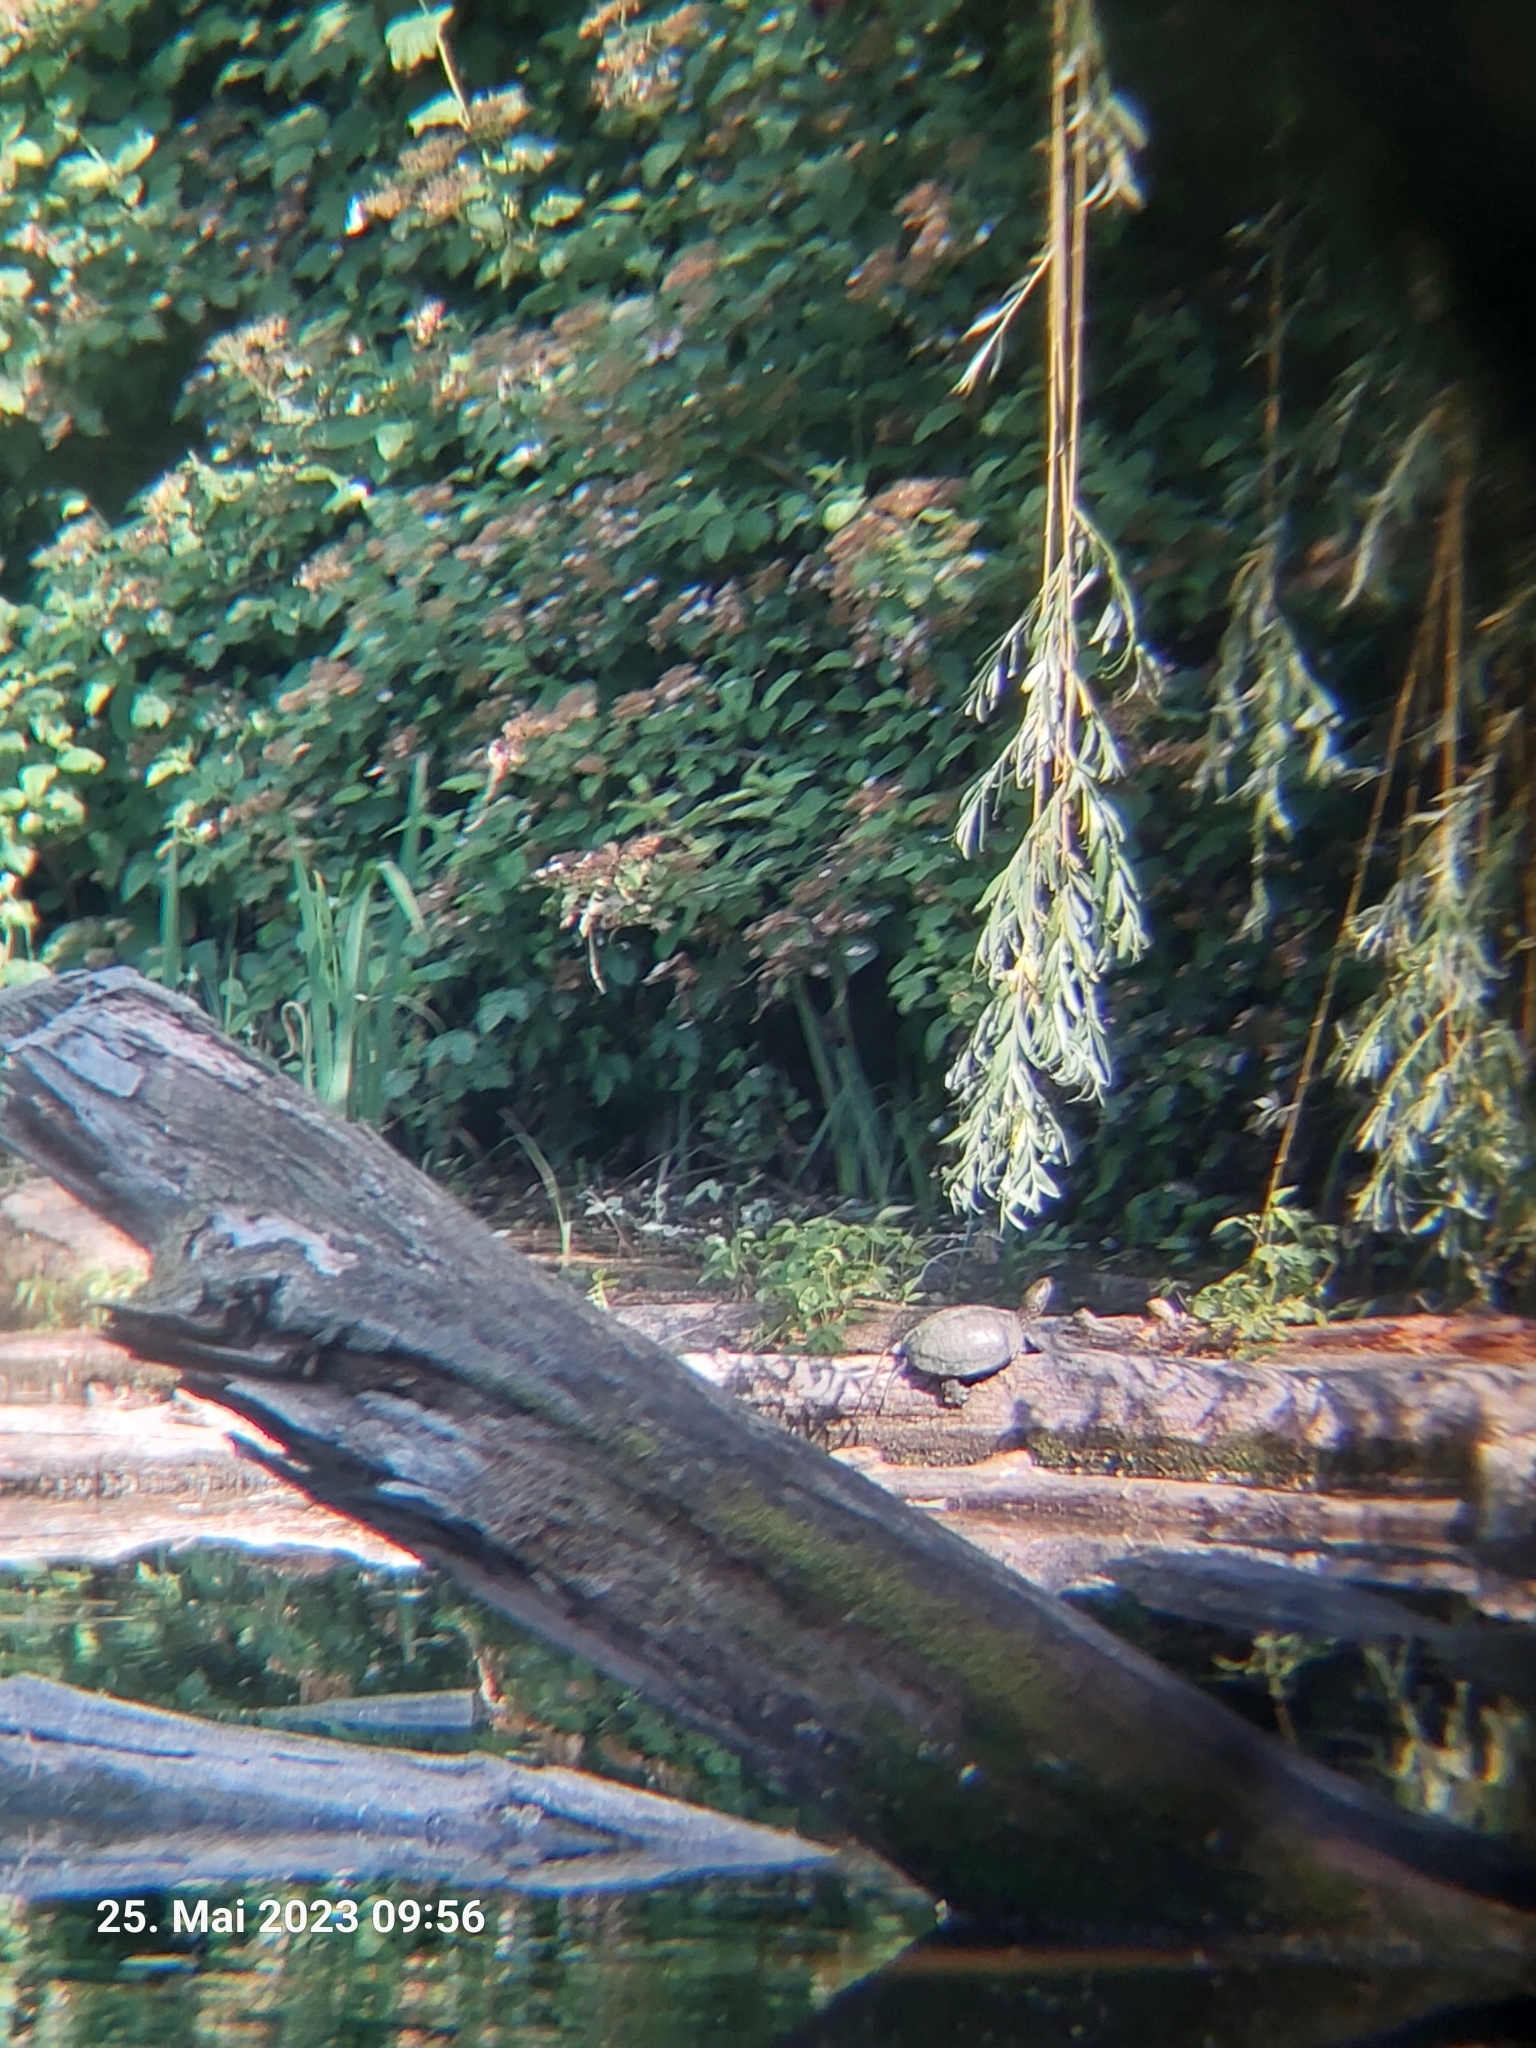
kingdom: Animalia
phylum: Chordata
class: Testudines
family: Emydidae
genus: Emys
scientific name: Emys orbicularis
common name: European pond turtle
